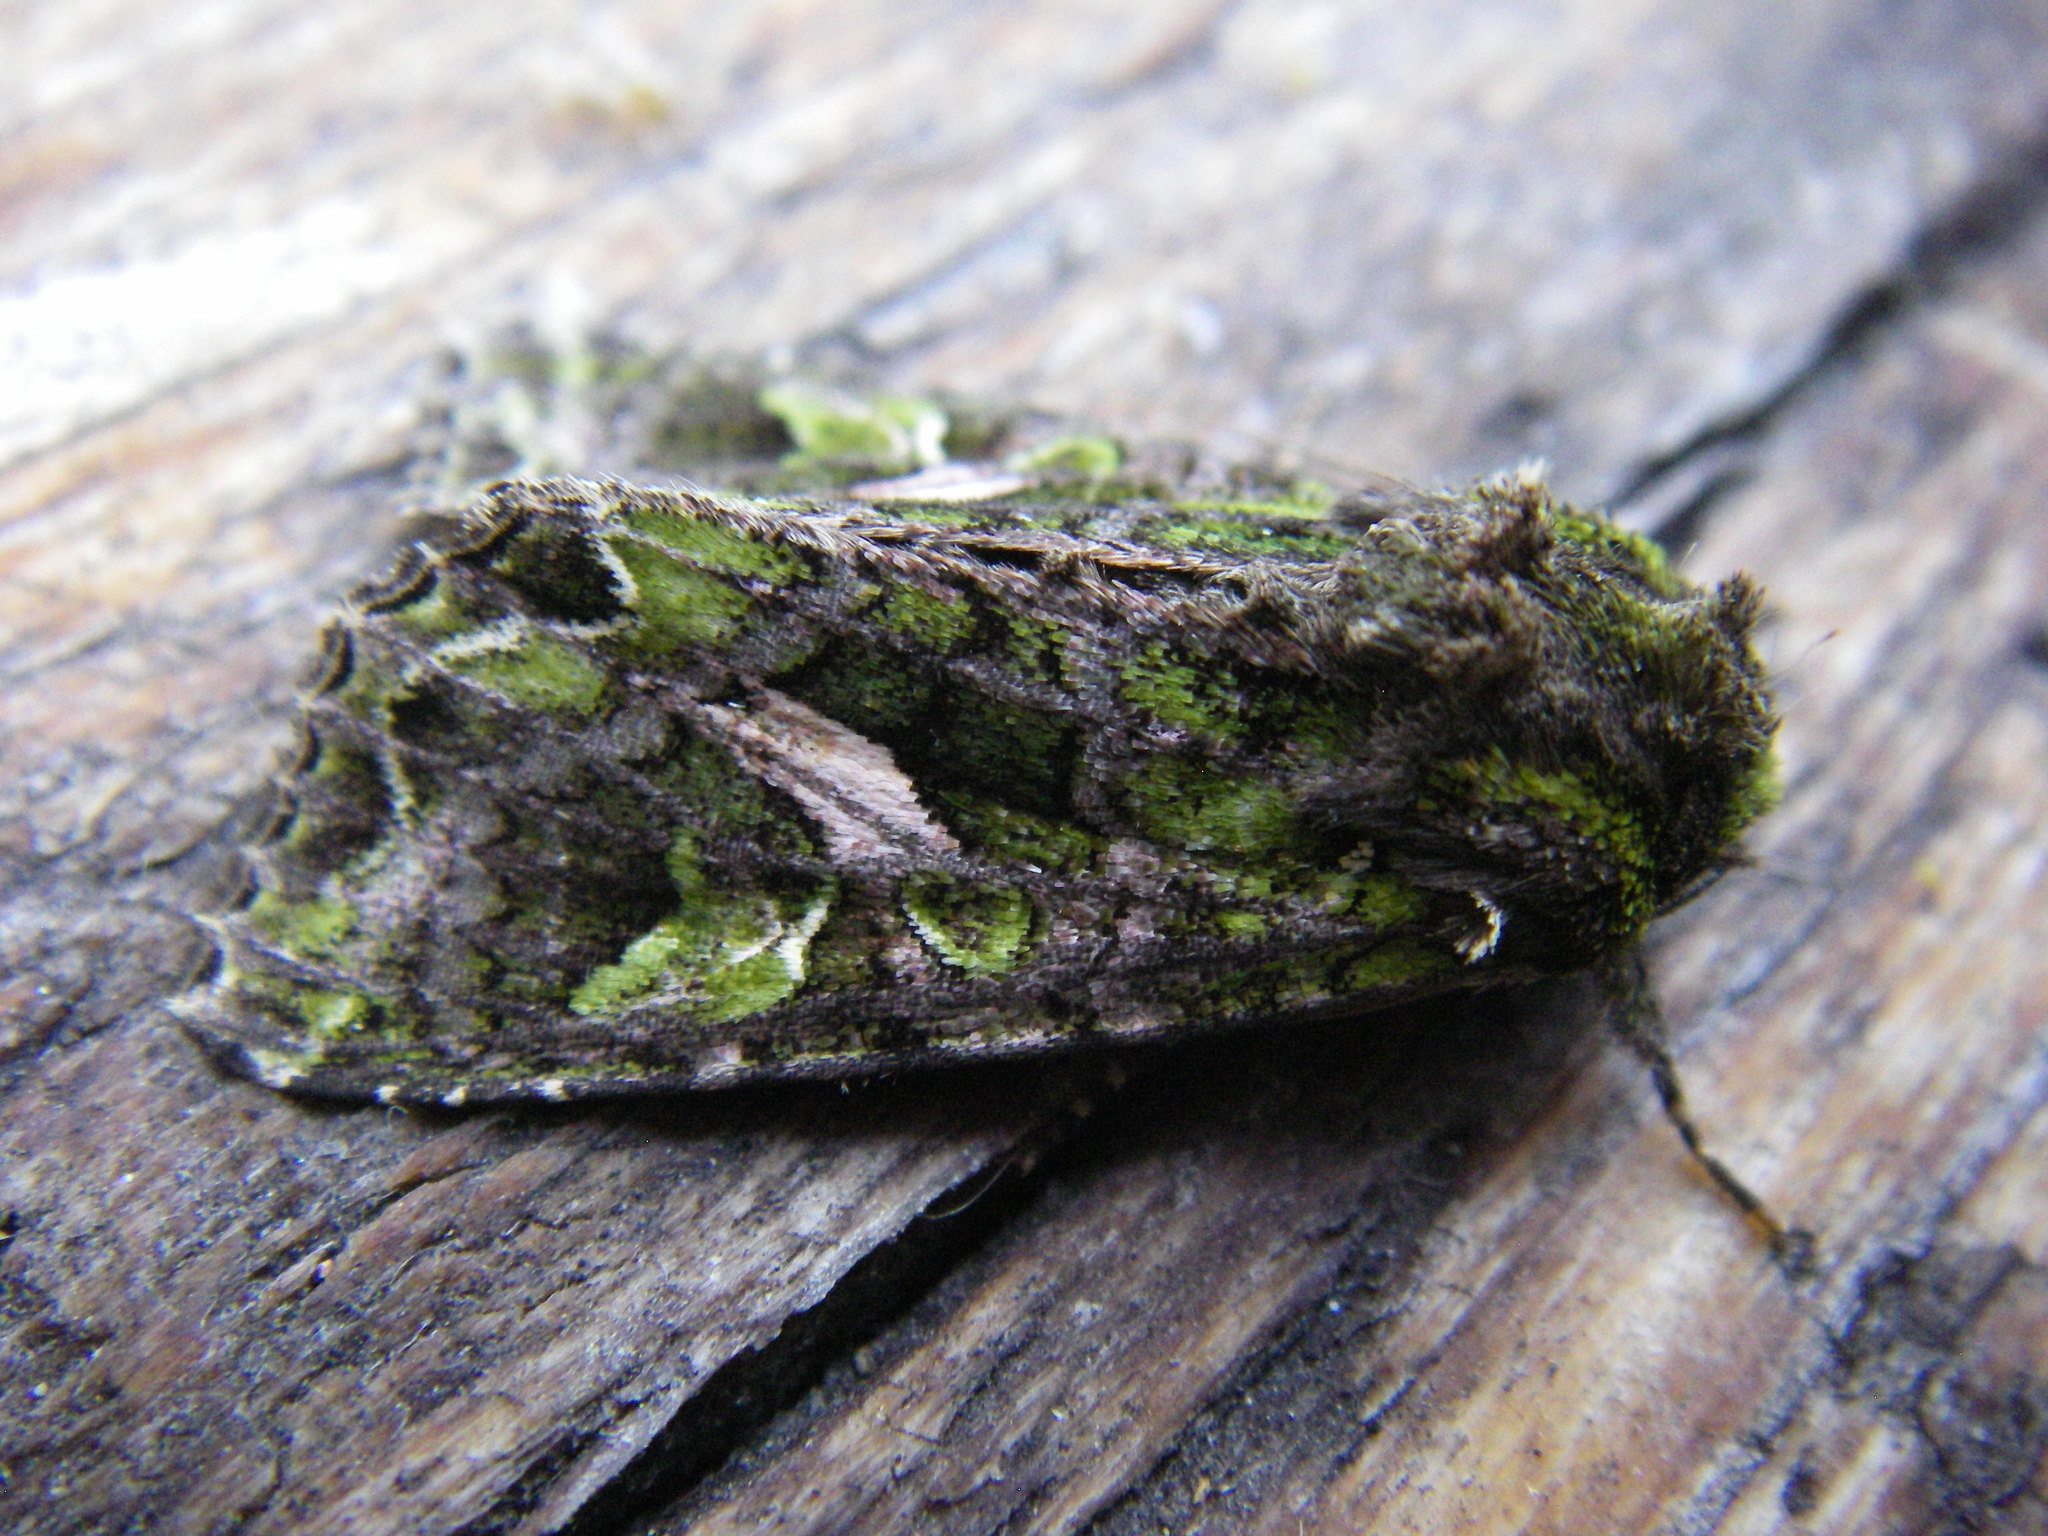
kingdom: Animalia
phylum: Arthropoda
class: Insecta
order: Lepidoptera
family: Noctuidae
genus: Trachea
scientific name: Trachea atriplicis
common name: Orache moth
